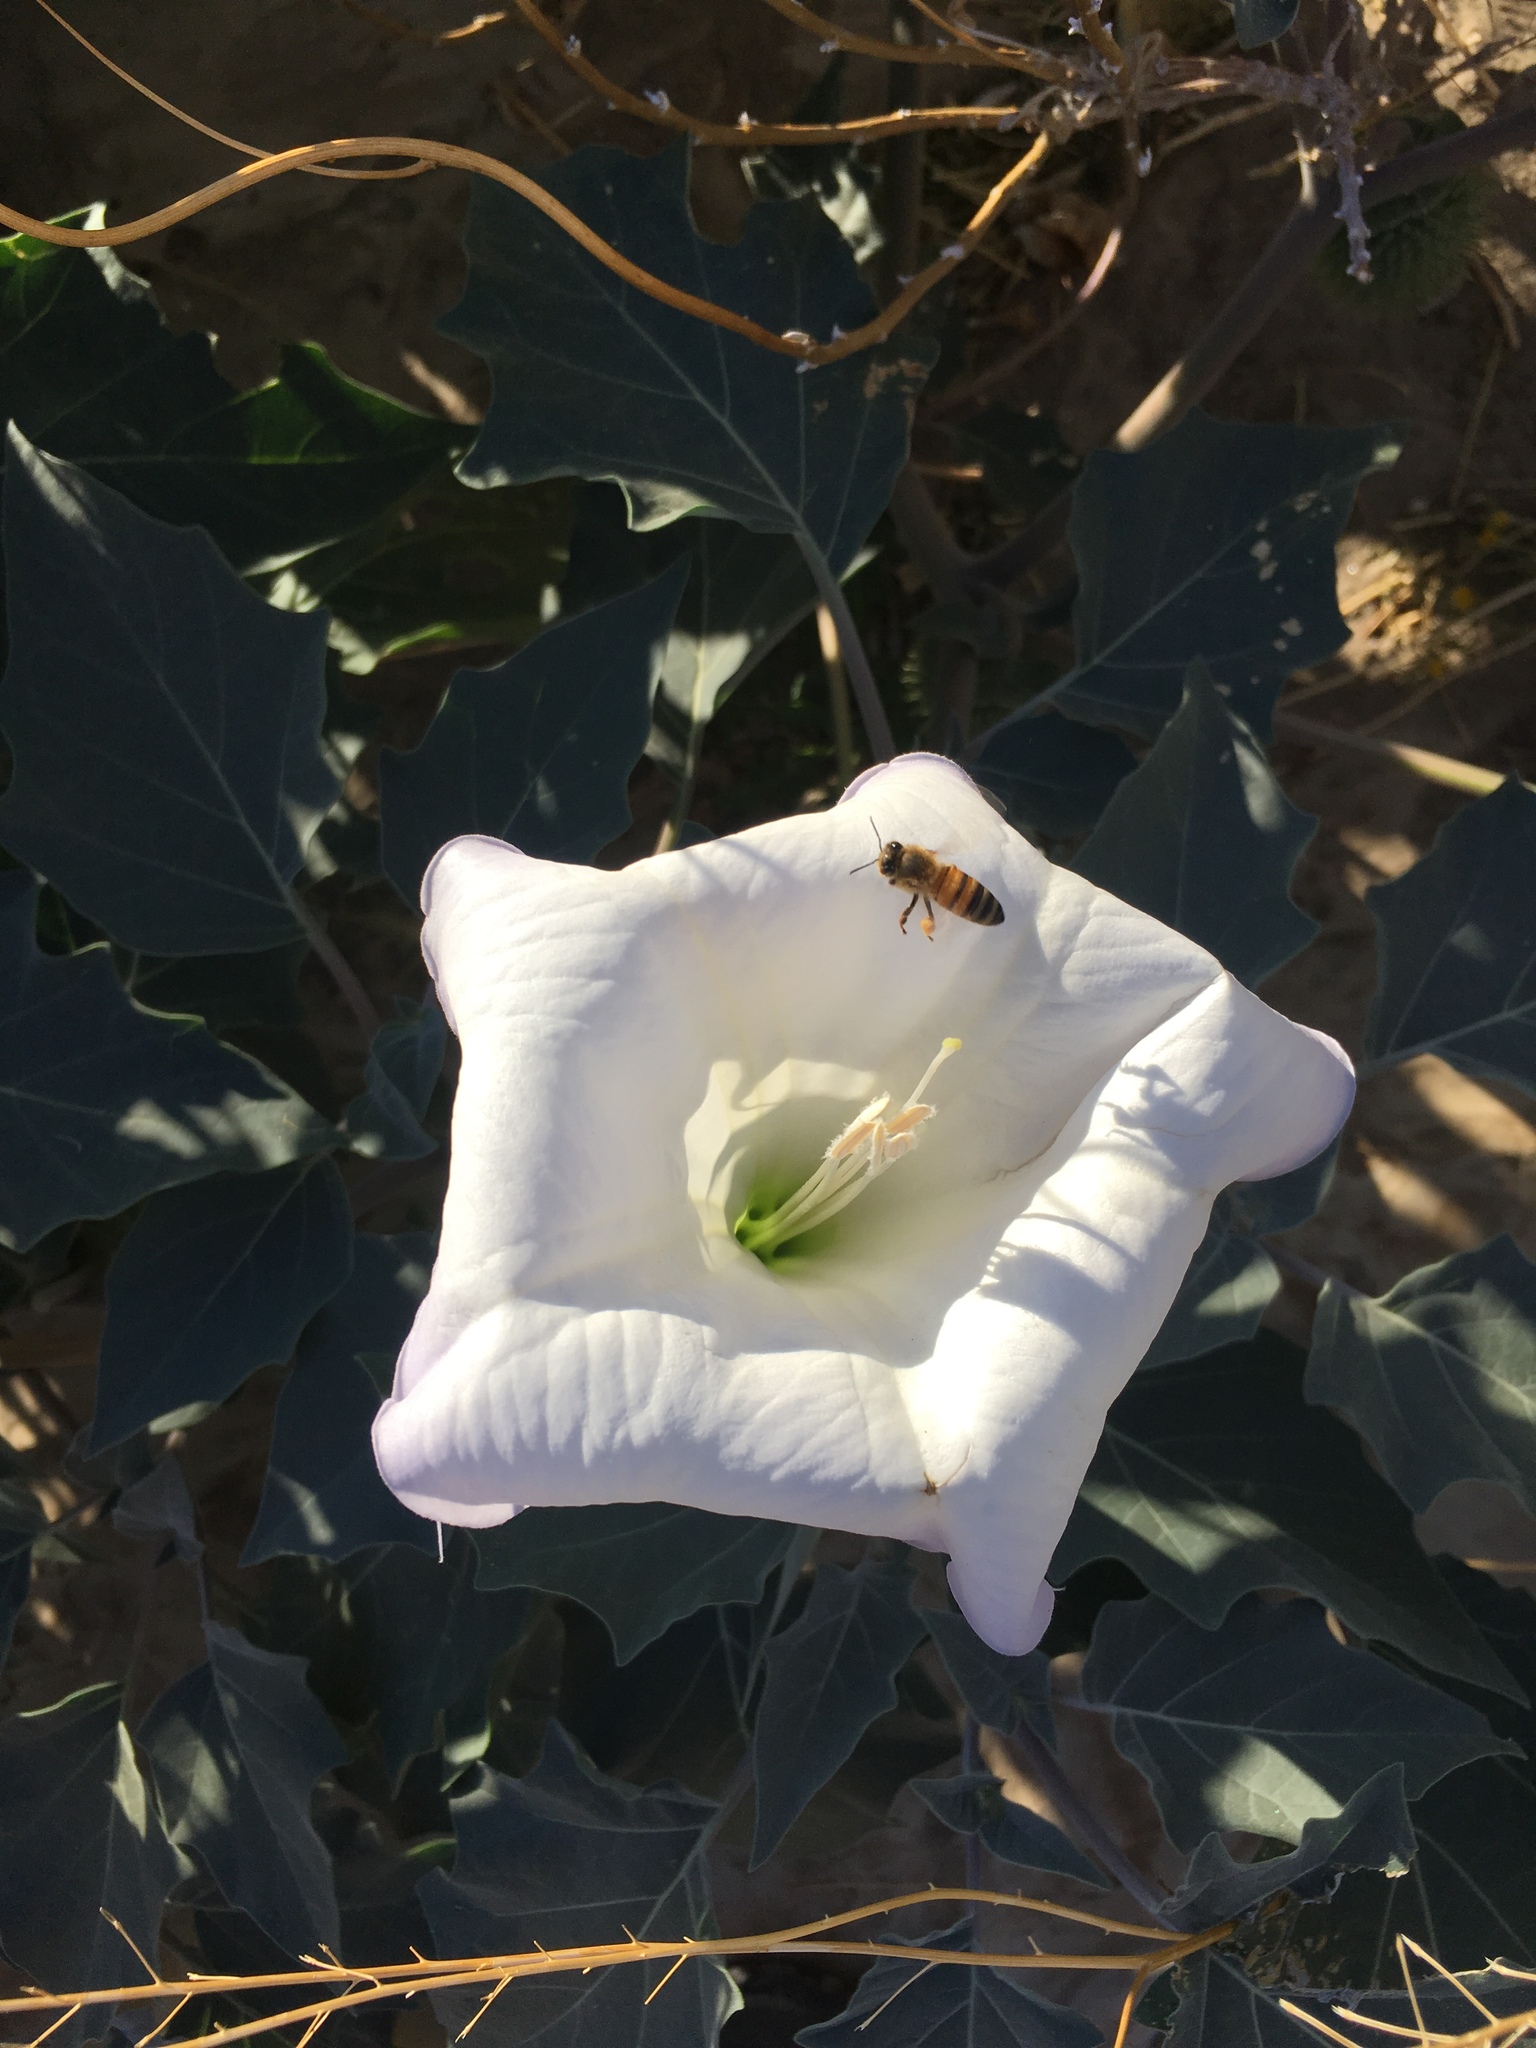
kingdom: Plantae
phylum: Tracheophyta
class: Magnoliopsida
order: Solanales
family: Solanaceae
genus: Datura
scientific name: Datura wrightii
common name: Sacred thorn-apple
